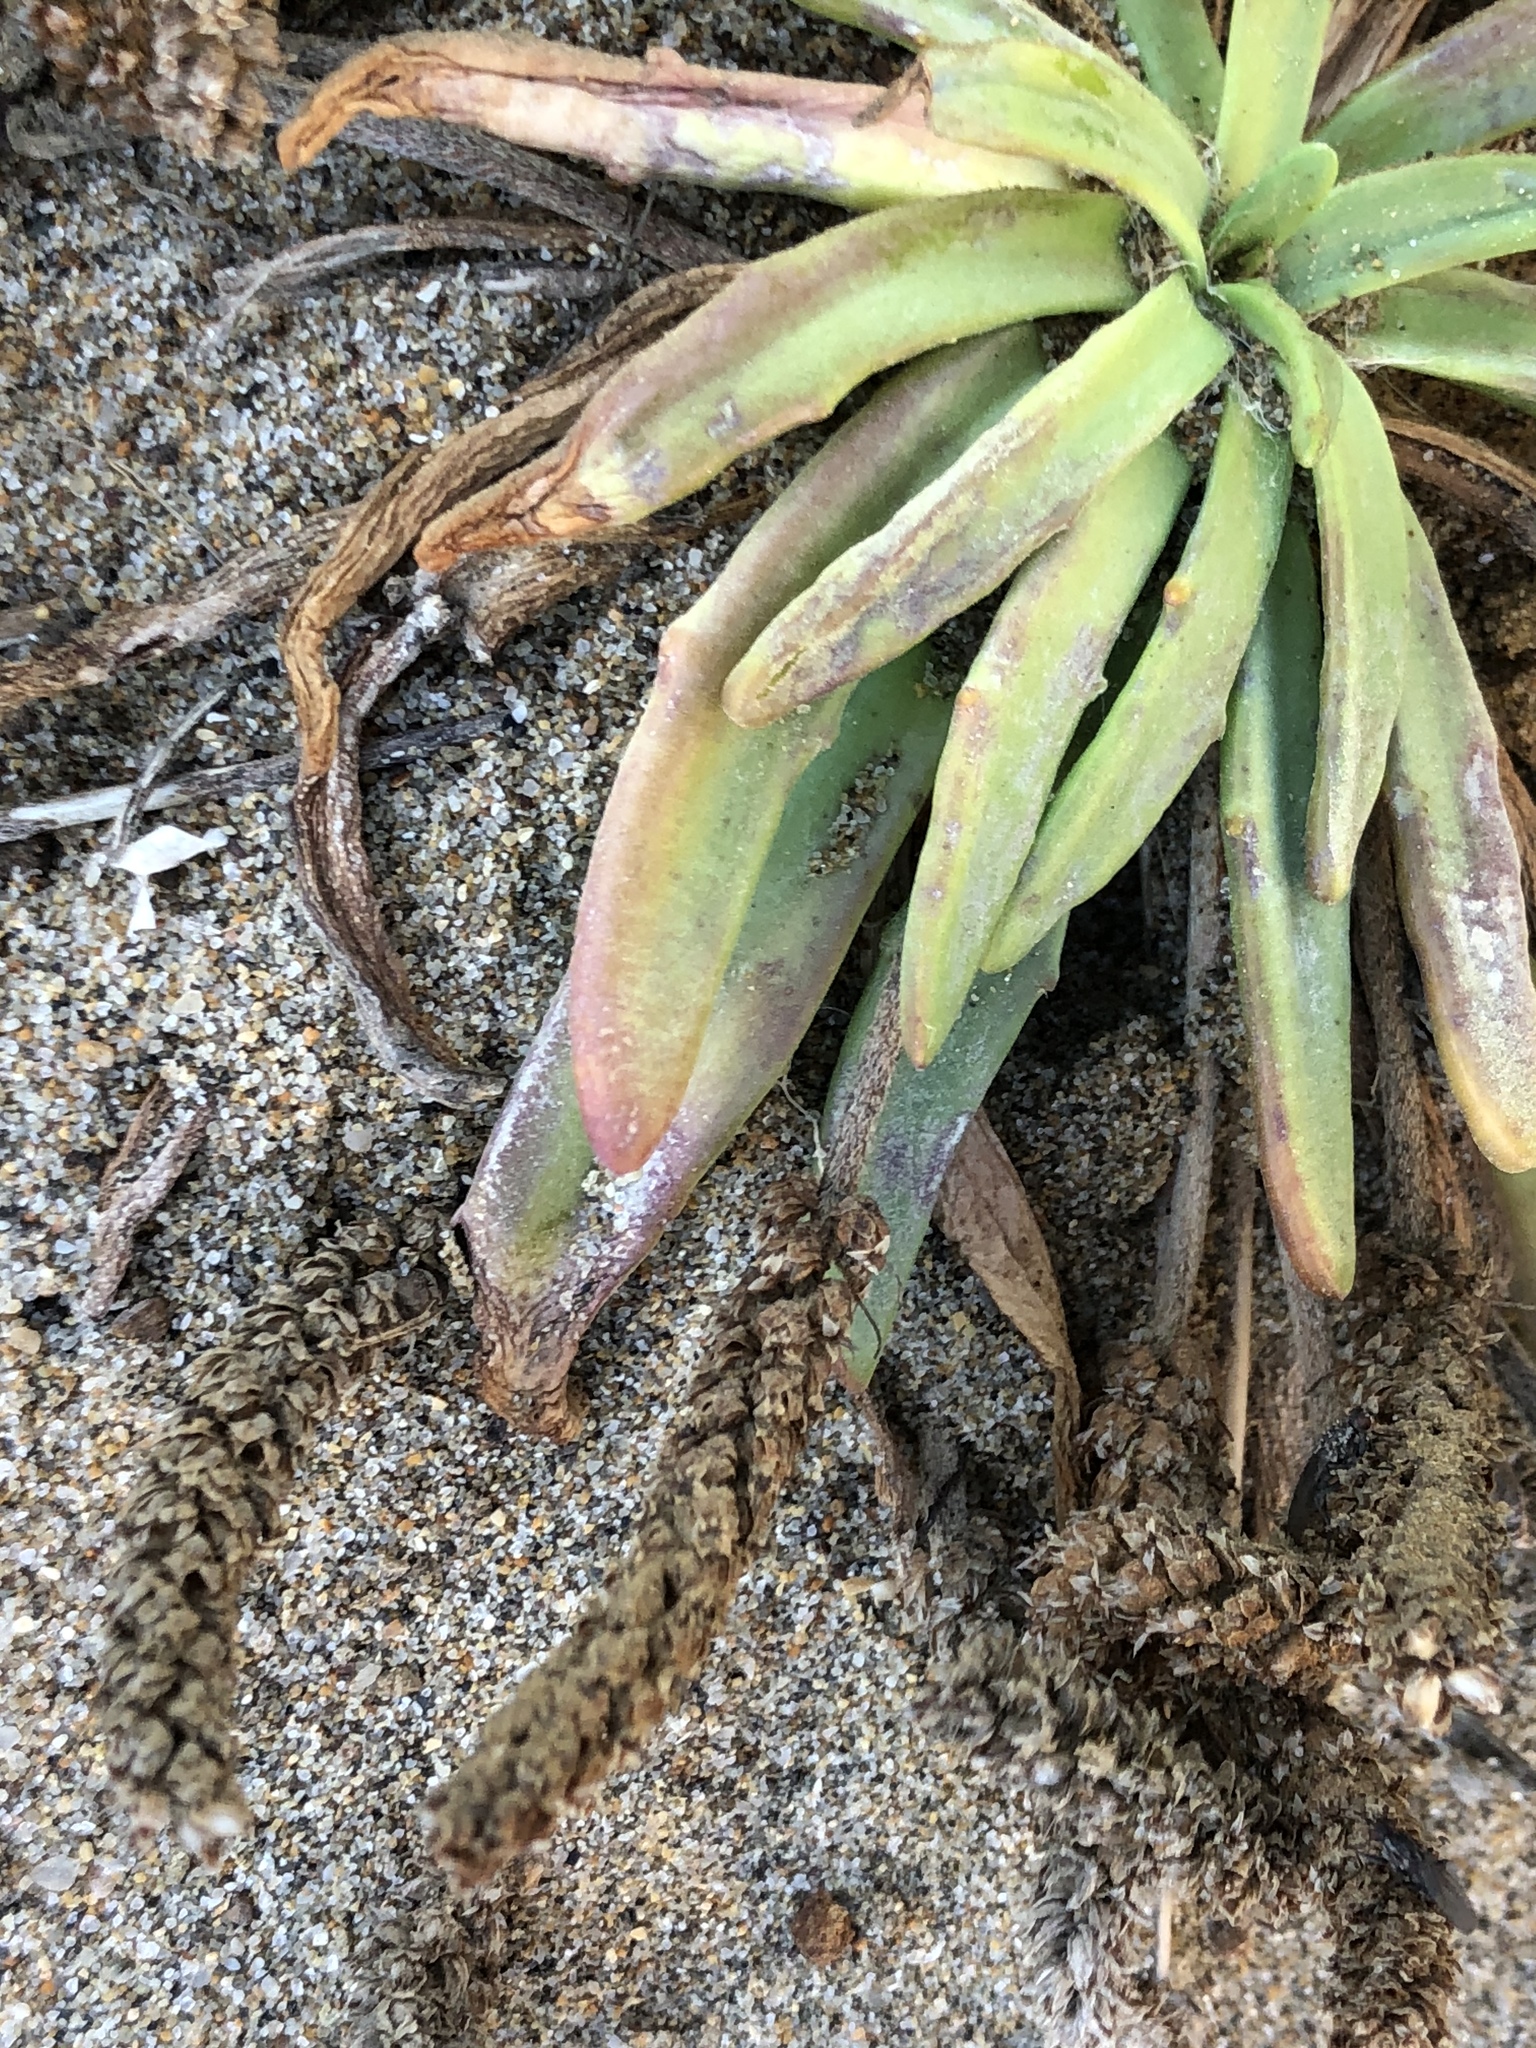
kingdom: Plantae
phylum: Tracheophyta
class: Magnoliopsida
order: Lamiales
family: Plantaginaceae
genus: Plantago
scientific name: Plantago maritima
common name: Sea plantain
